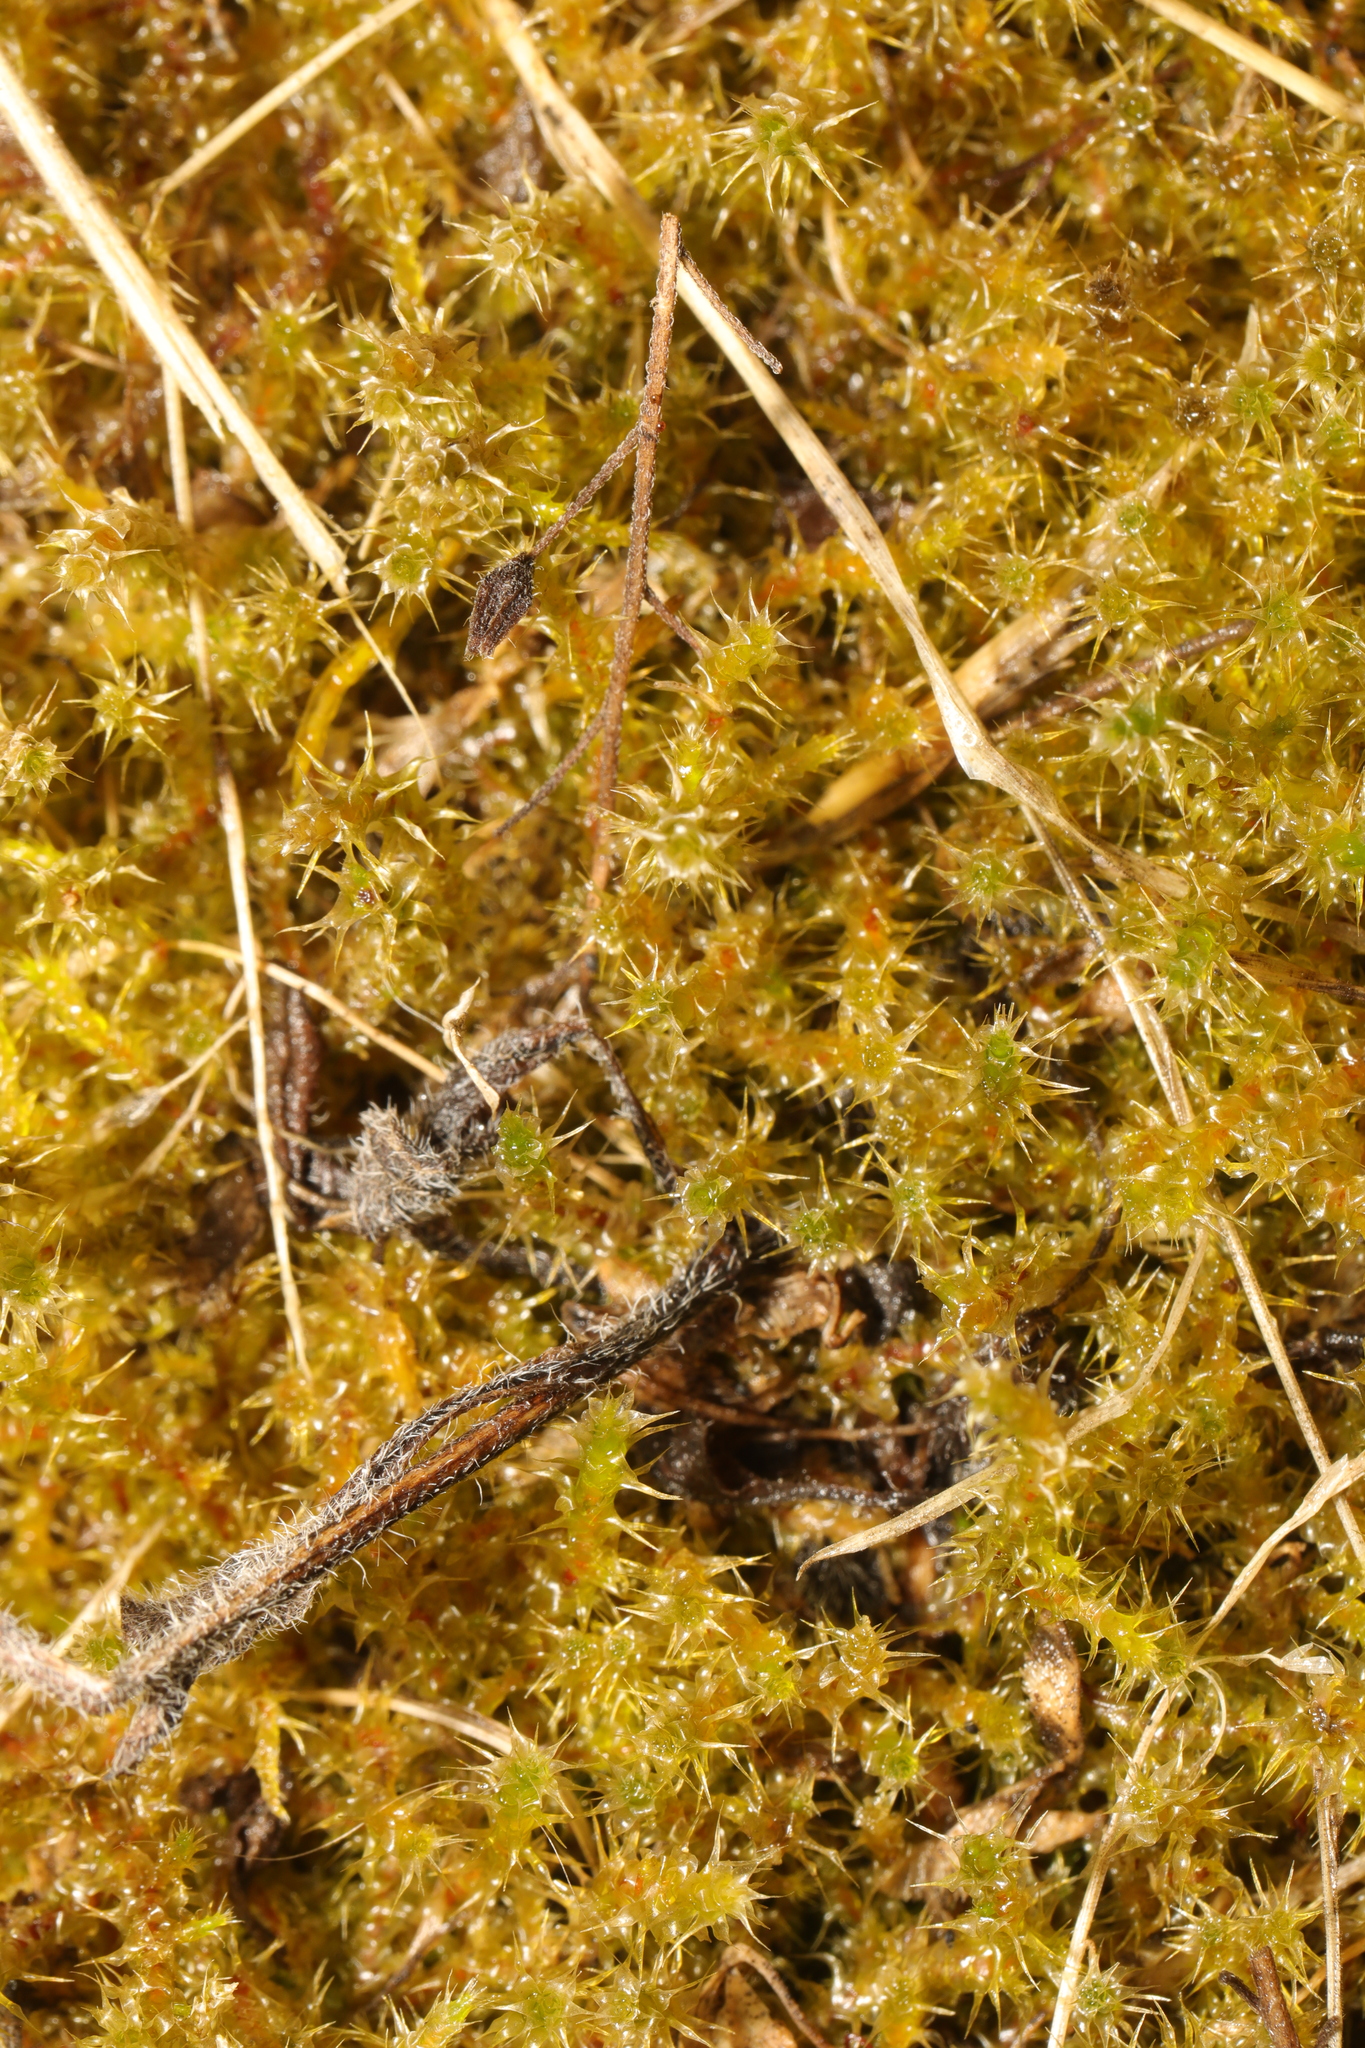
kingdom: Plantae
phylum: Bryophyta
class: Bryopsida
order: Hypnales
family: Hylocomiaceae
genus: Rhytidiadelphus
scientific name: Rhytidiadelphus squarrosus
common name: Springy turf-moss
